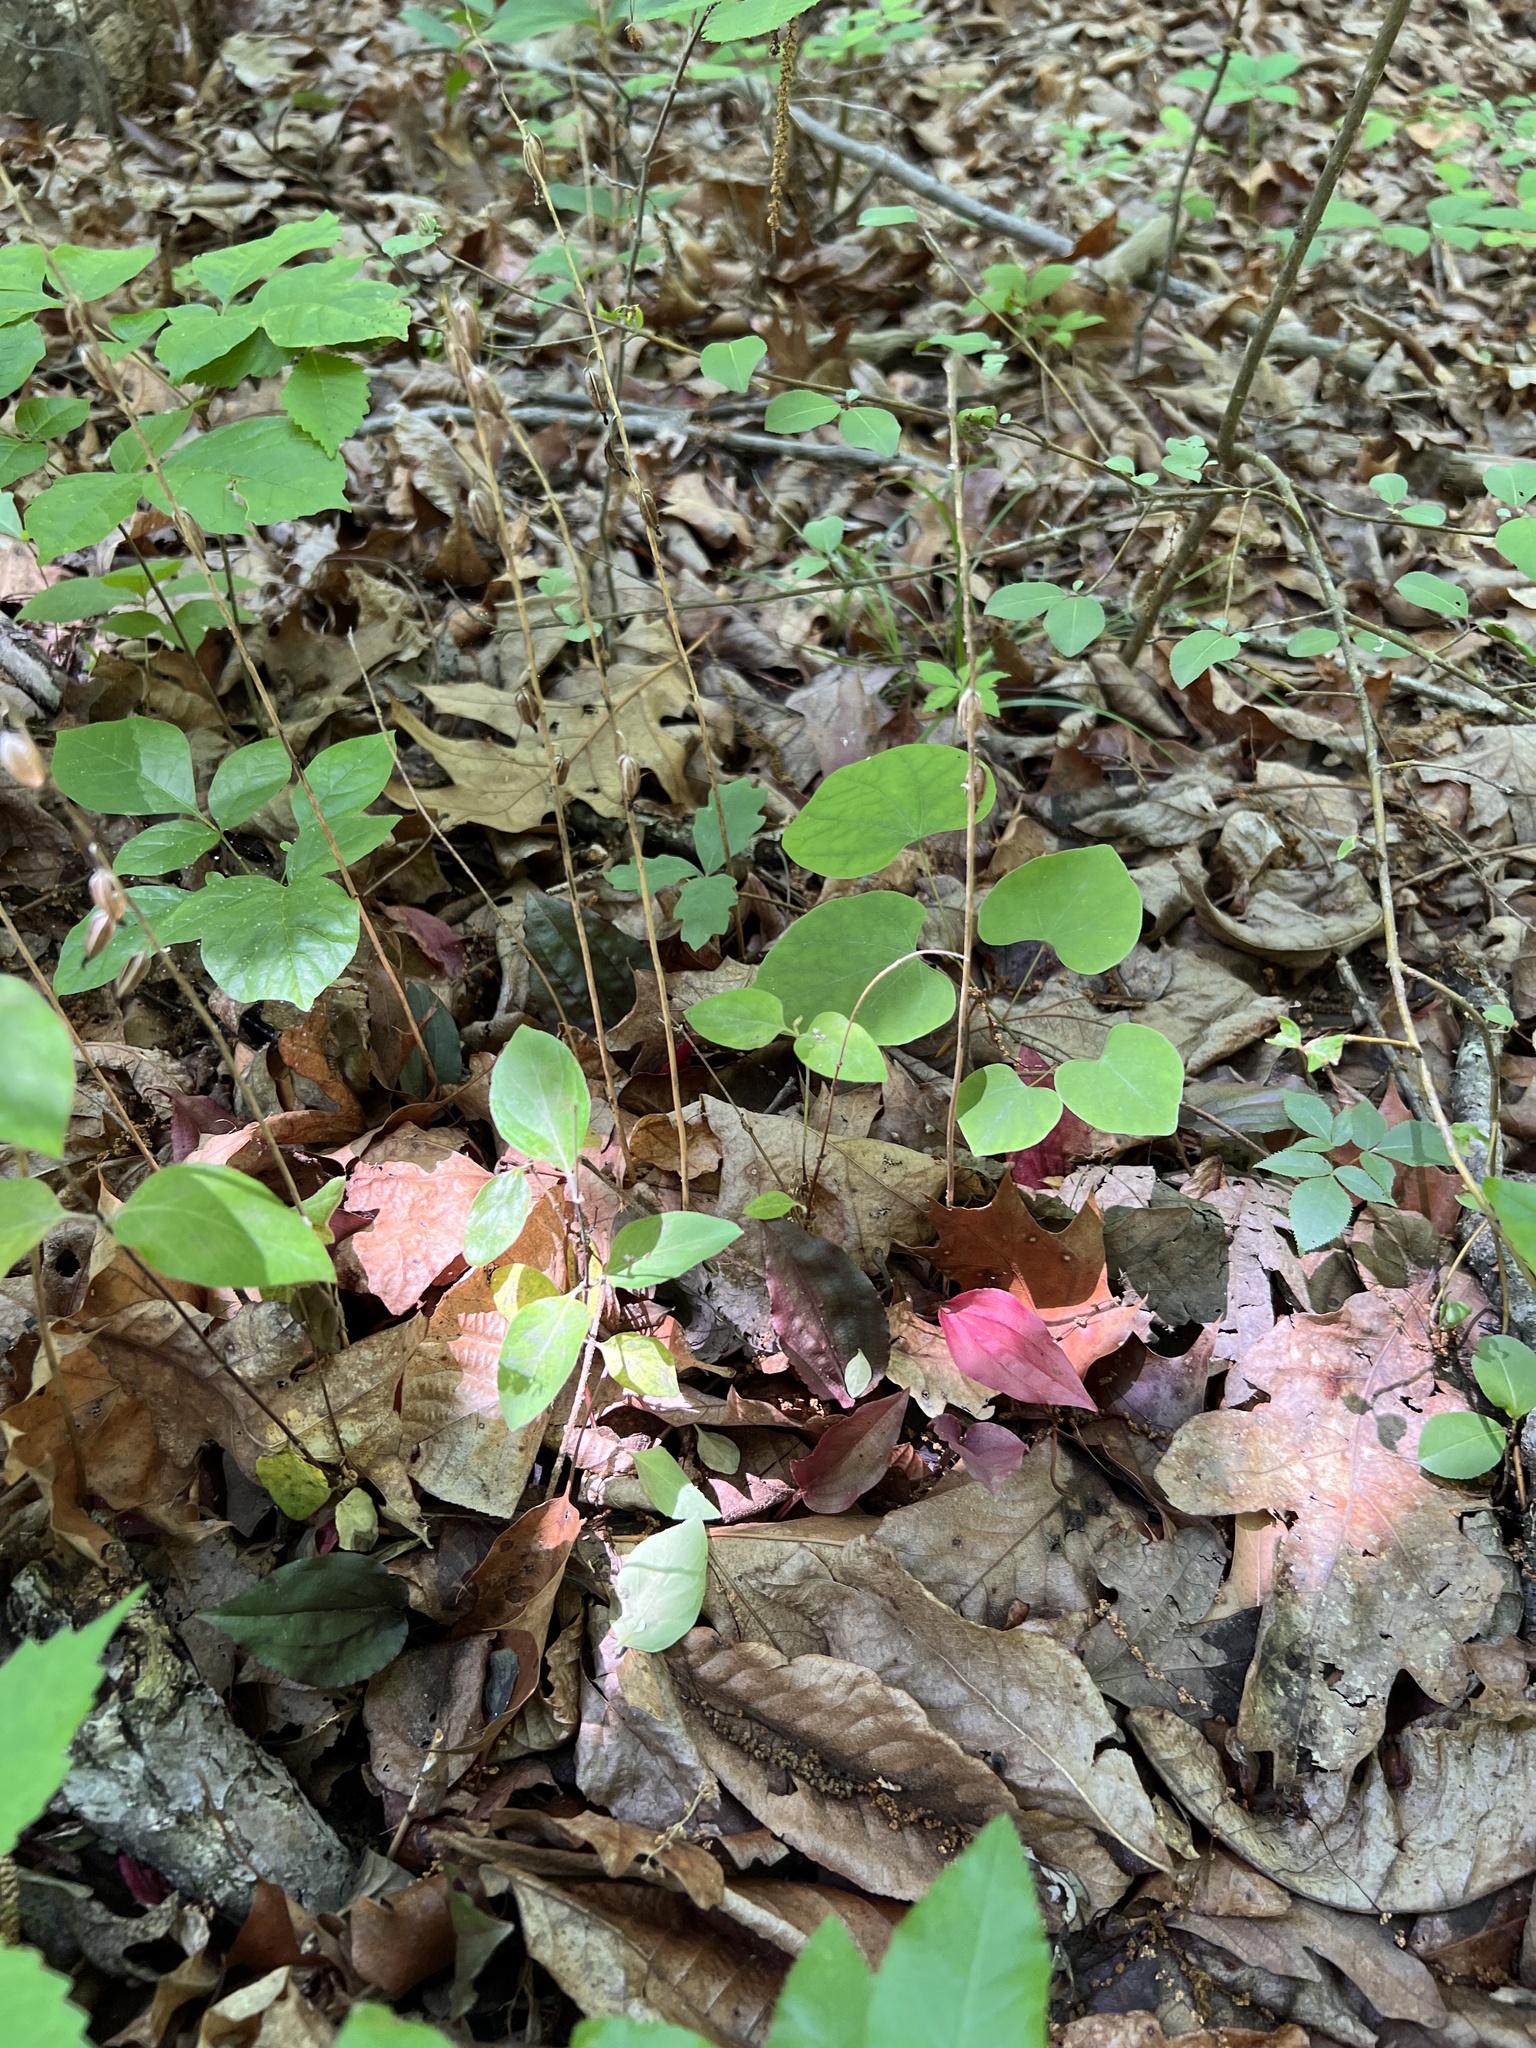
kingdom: Plantae
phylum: Tracheophyta
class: Liliopsida
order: Asparagales
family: Orchidaceae
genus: Tipularia
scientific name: Tipularia discolor
